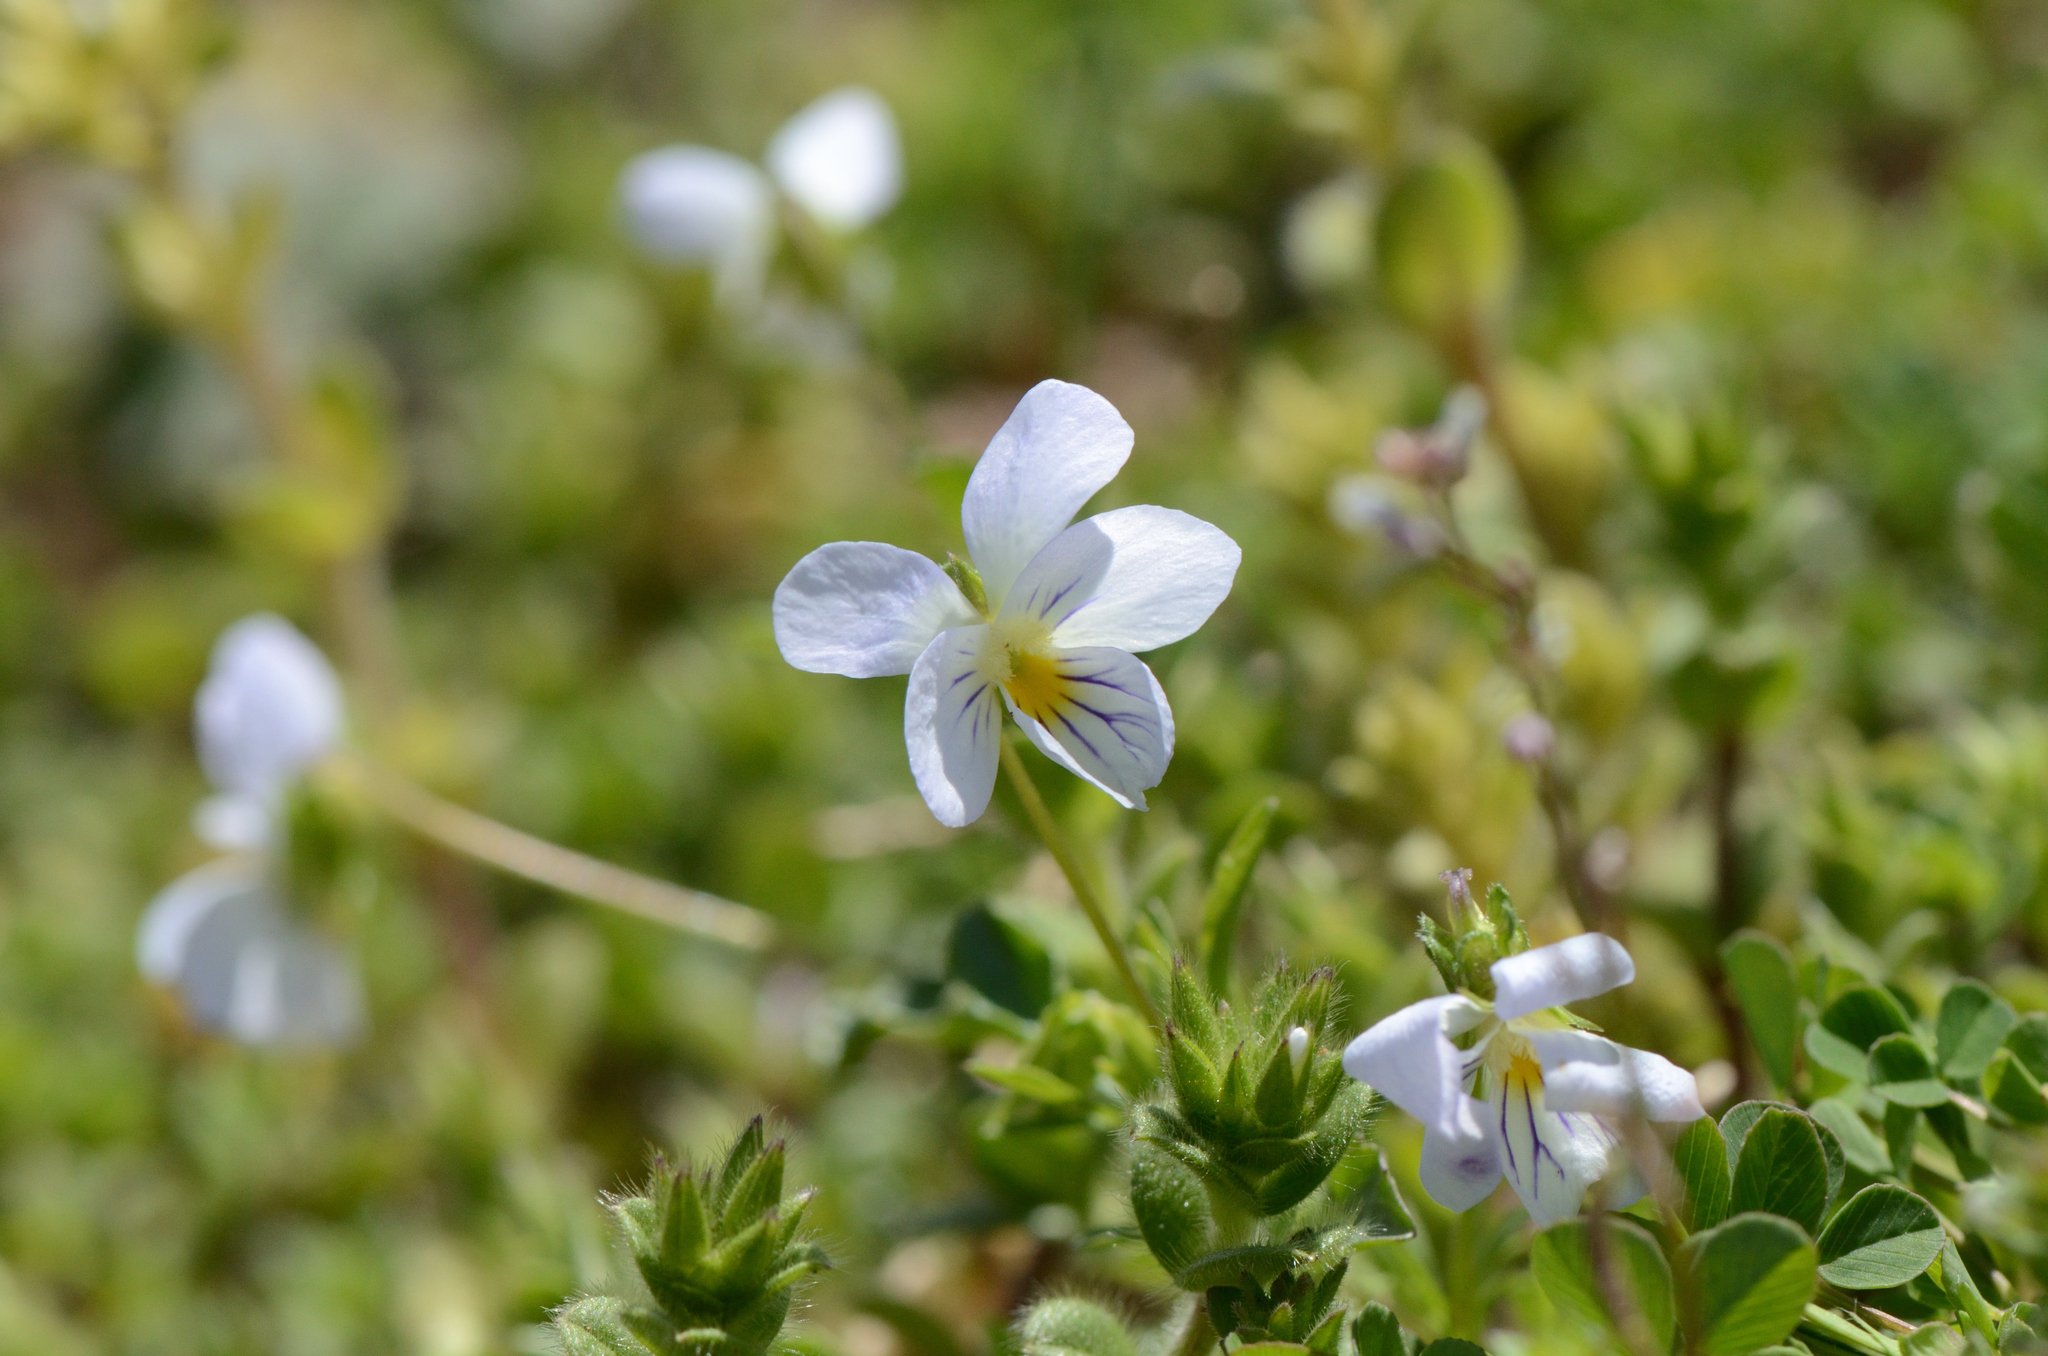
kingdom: Plantae
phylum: Tracheophyta
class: Magnoliopsida
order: Malpighiales
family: Violaceae
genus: Viola
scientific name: Viola rafinesquei
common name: American field pansy
